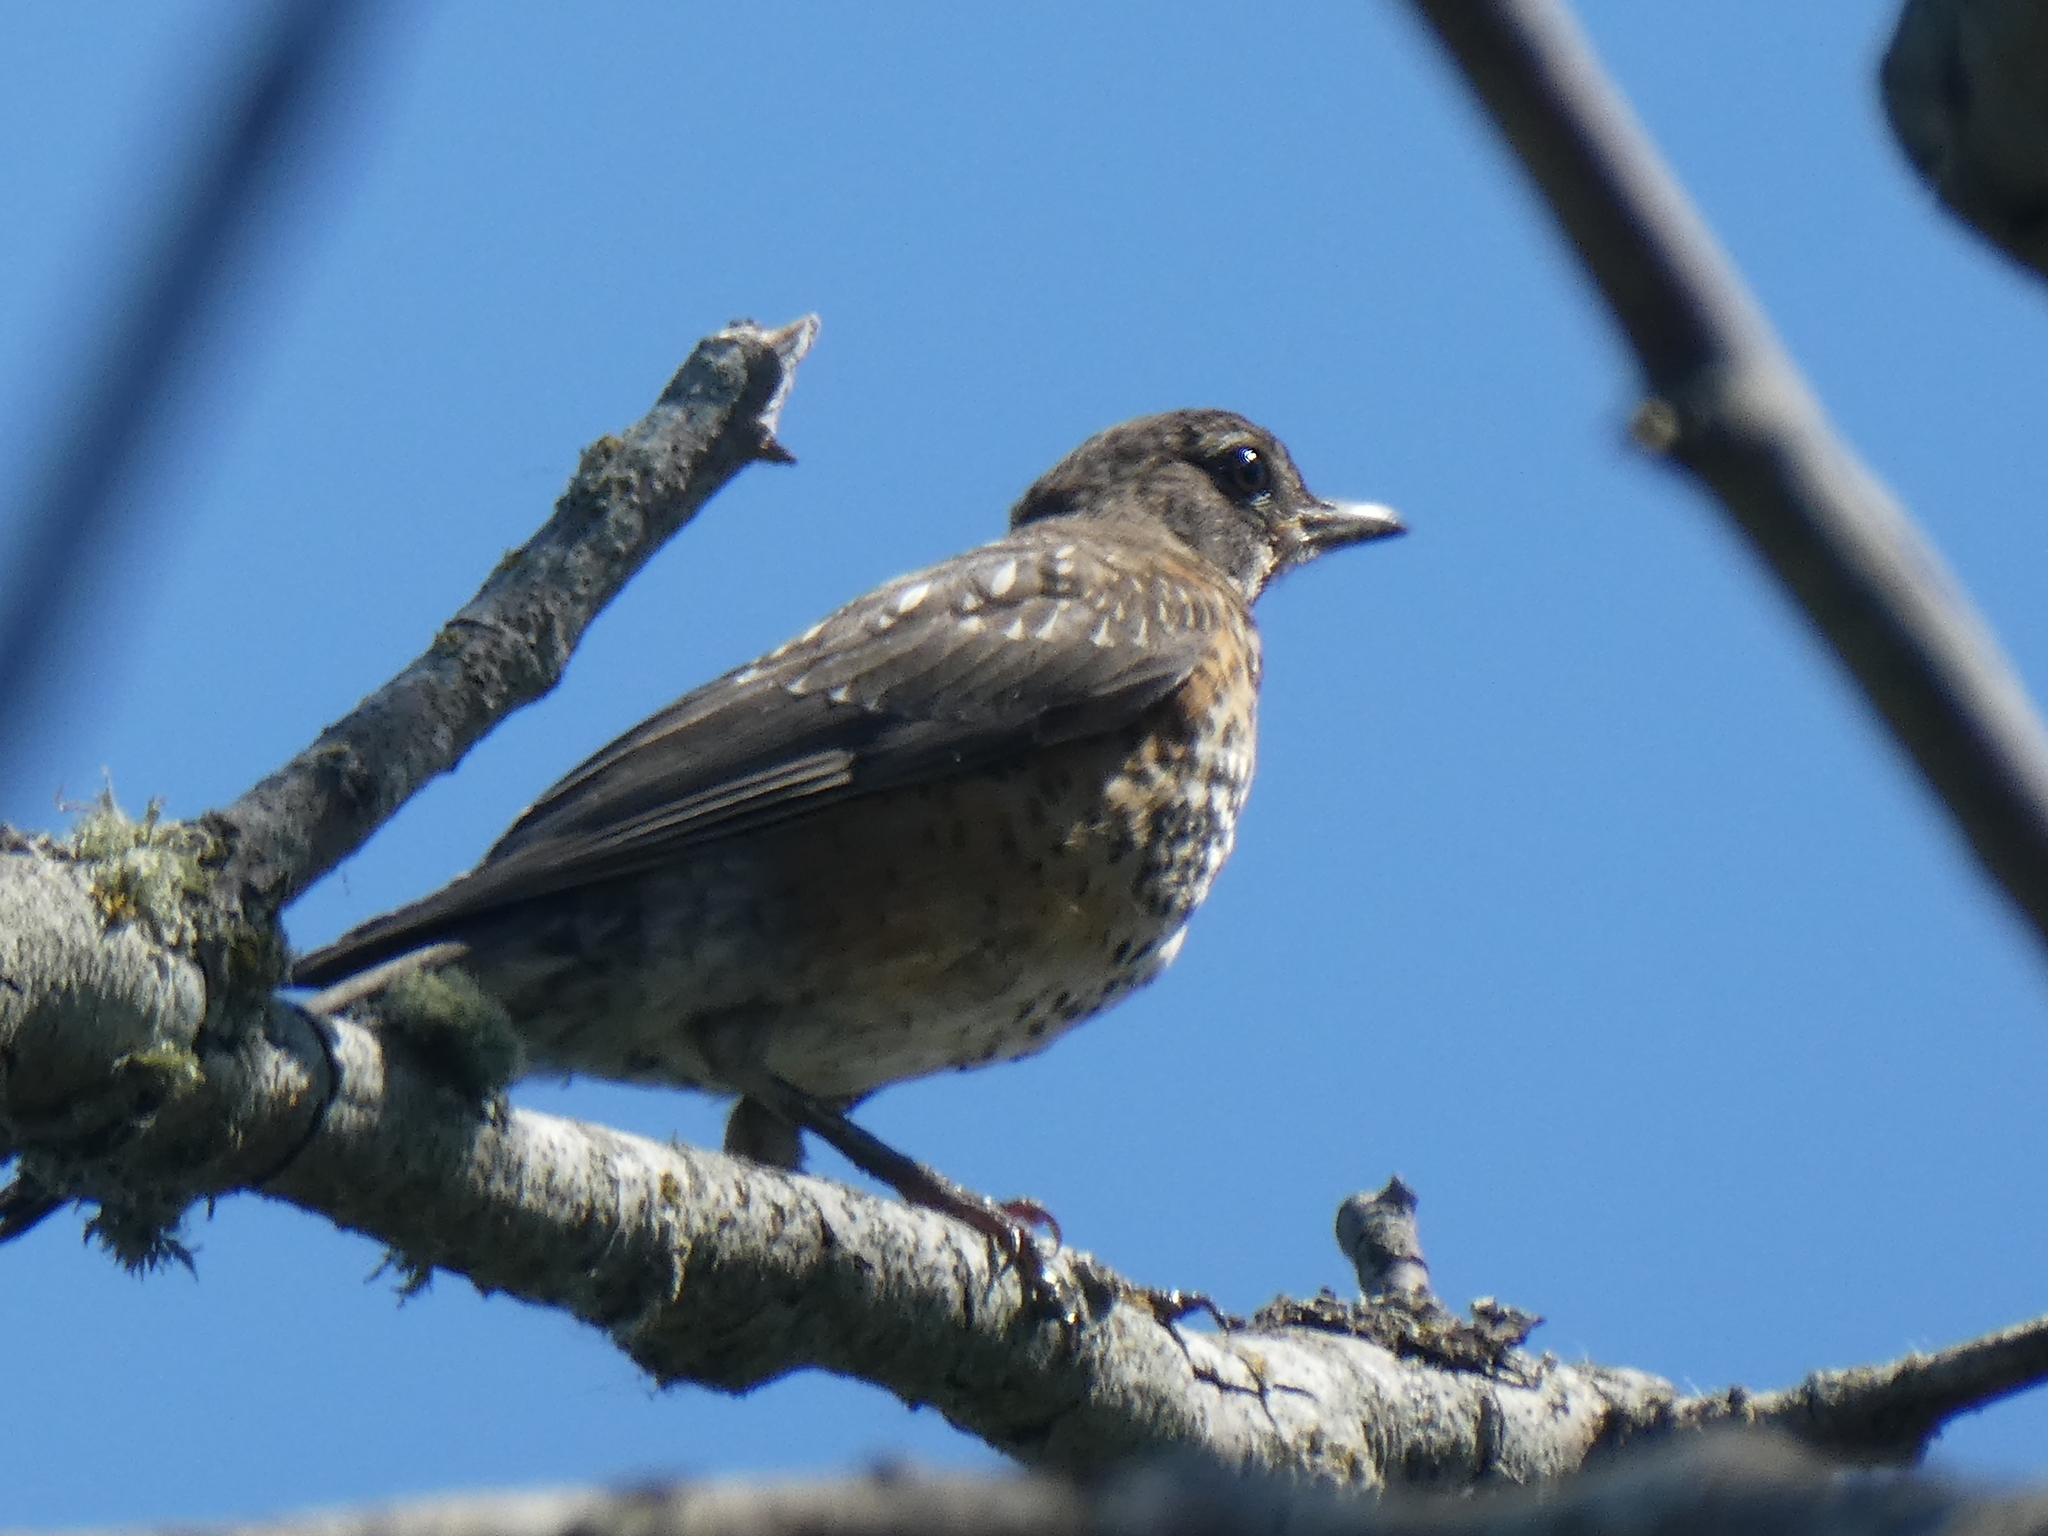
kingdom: Animalia
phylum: Chordata
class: Aves
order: Passeriformes
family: Turdidae
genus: Turdus
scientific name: Turdus migratorius
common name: American robin
